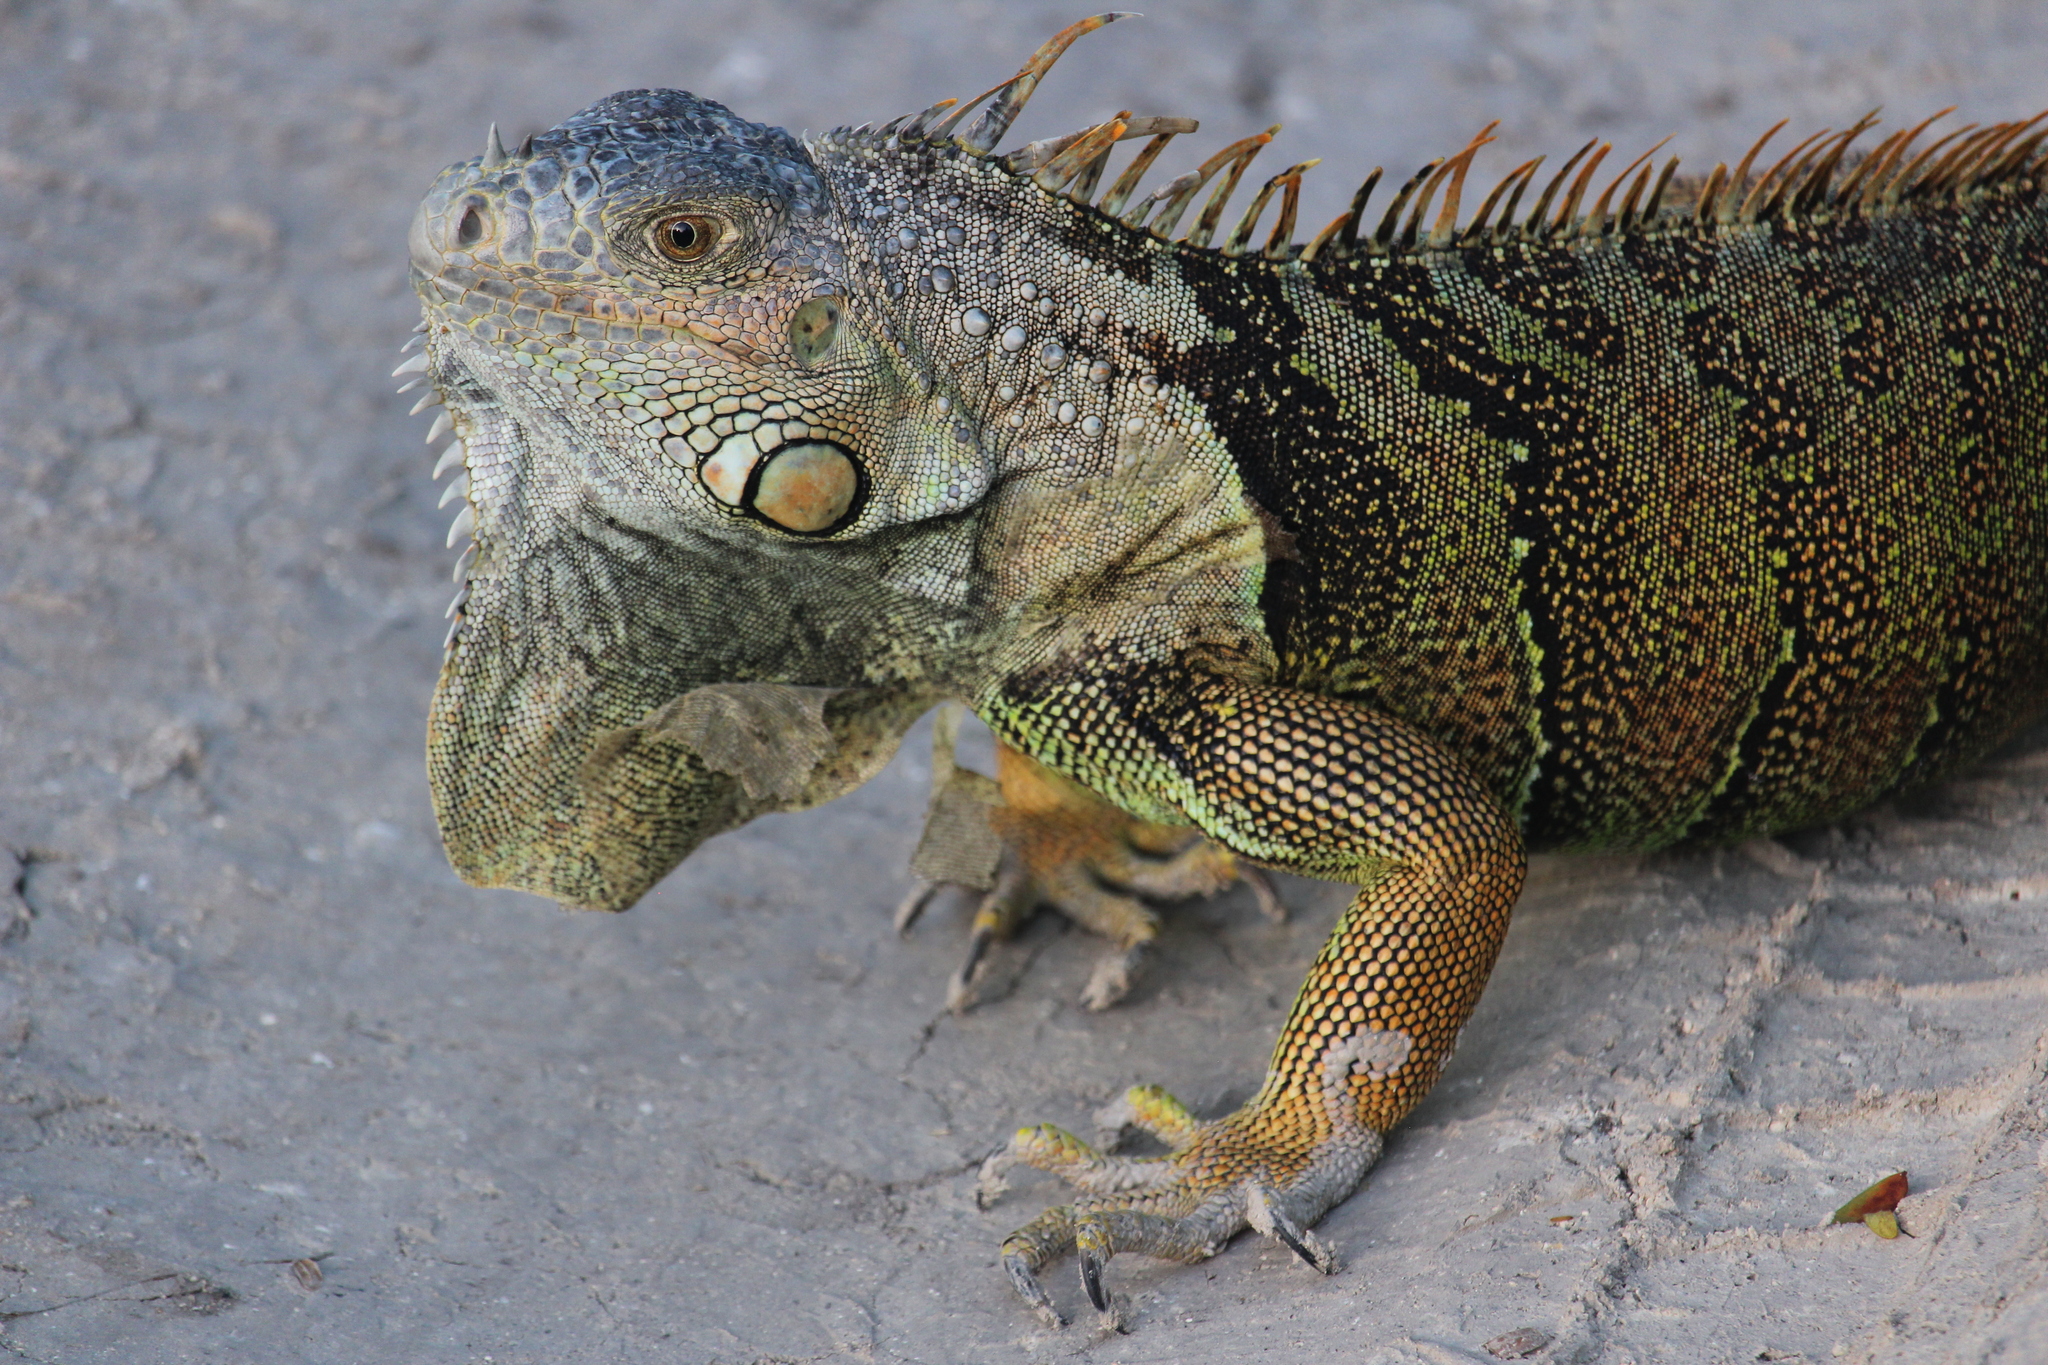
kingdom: Animalia
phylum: Chordata
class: Squamata
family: Iguanidae
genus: Iguana
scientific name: Iguana iguana
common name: Green iguana
